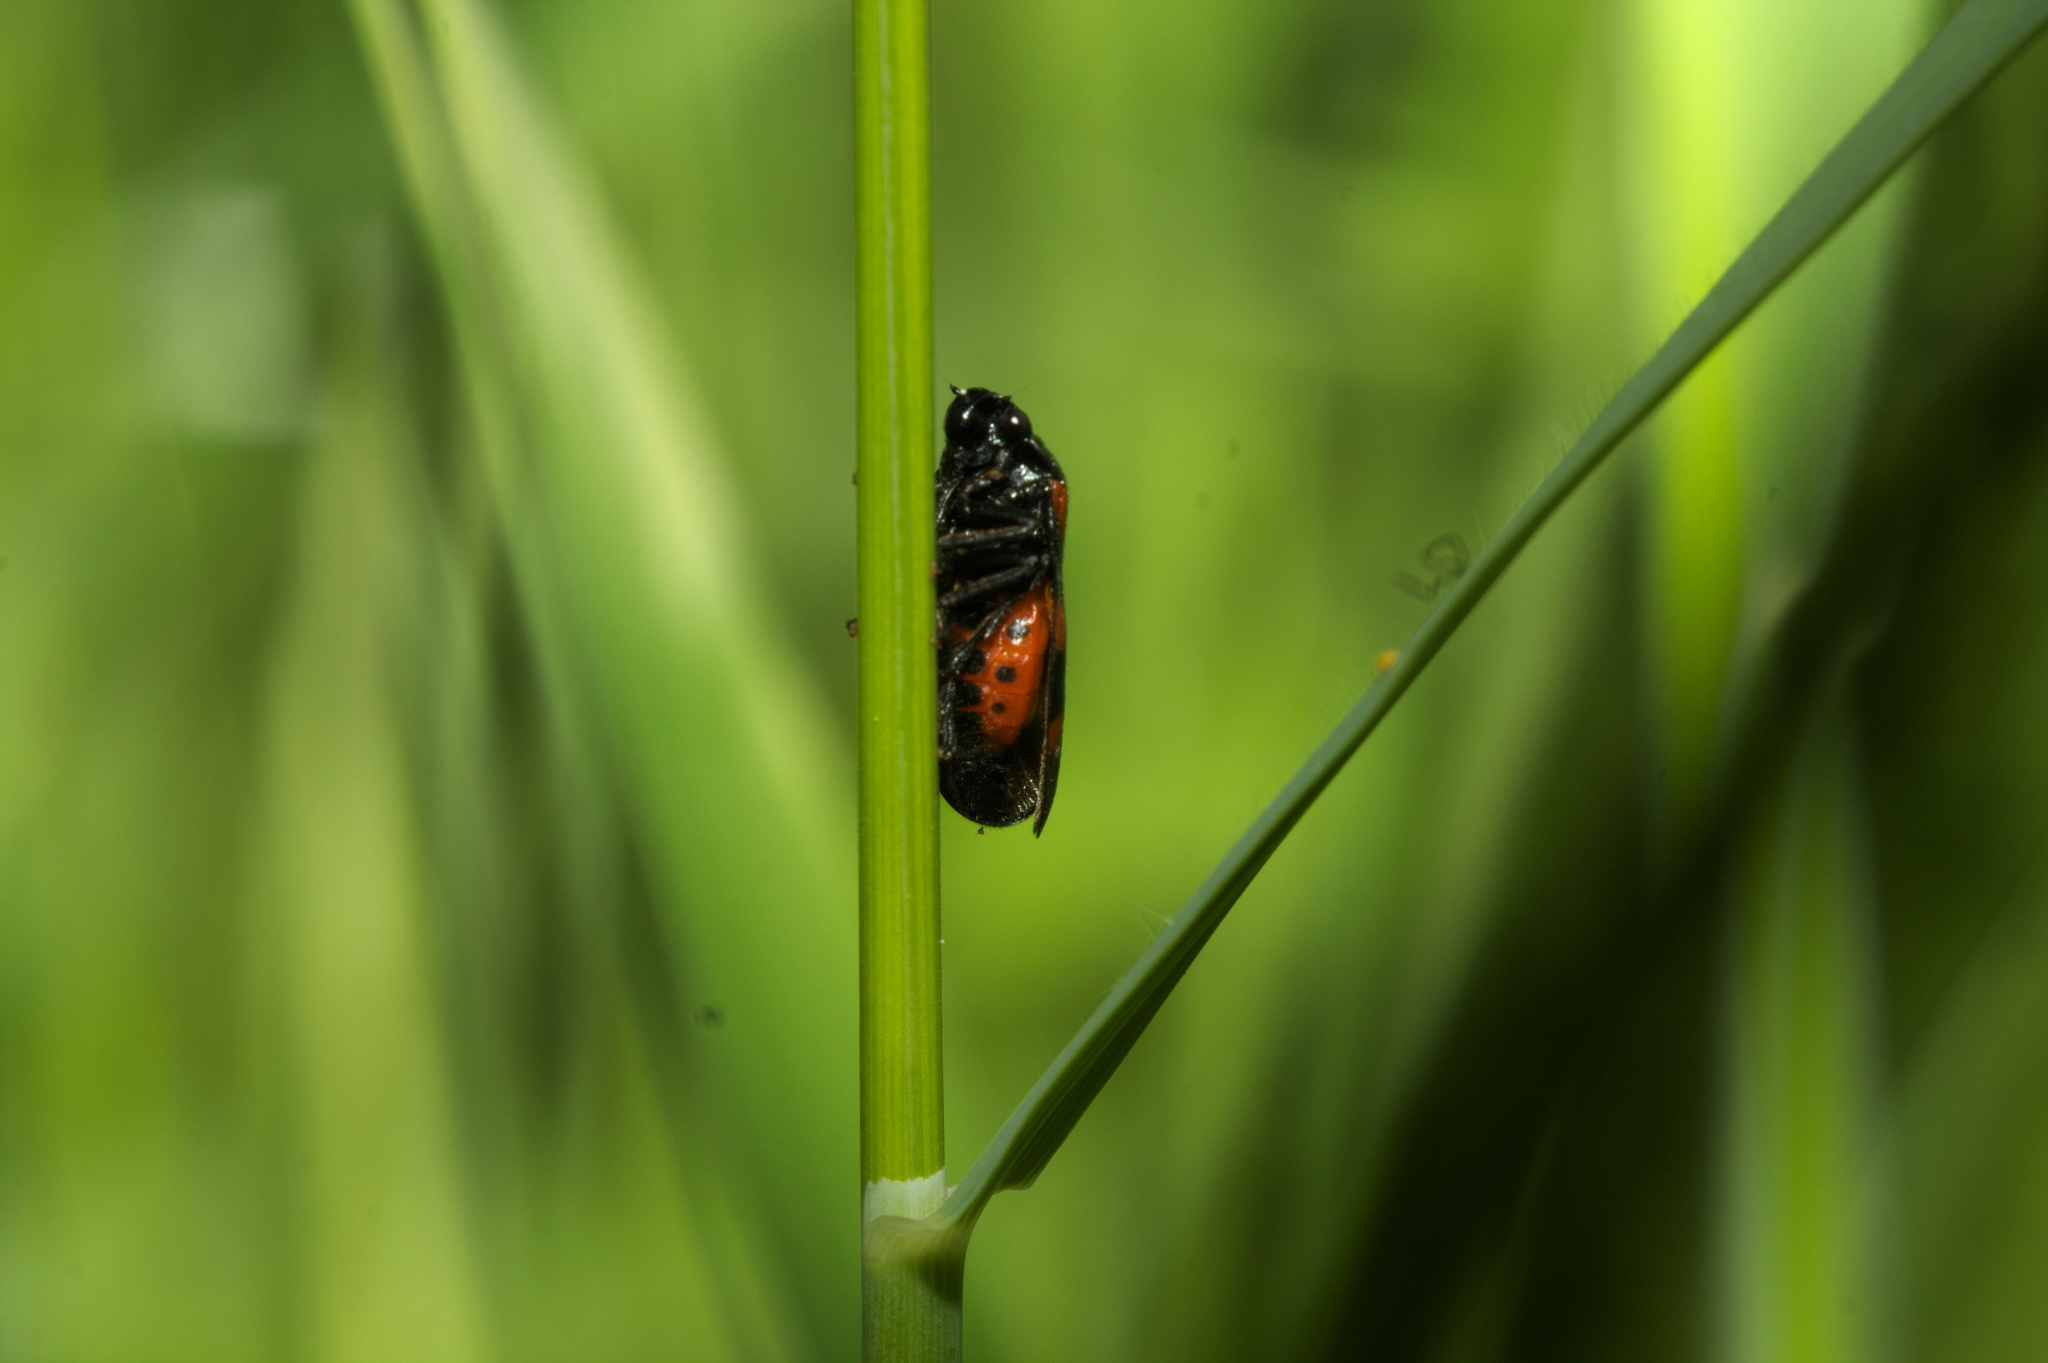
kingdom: Animalia
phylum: Arthropoda
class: Insecta
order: Hemiptera
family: Cercopidae
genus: Cercopis
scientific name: Cercopis sanguinolenta
